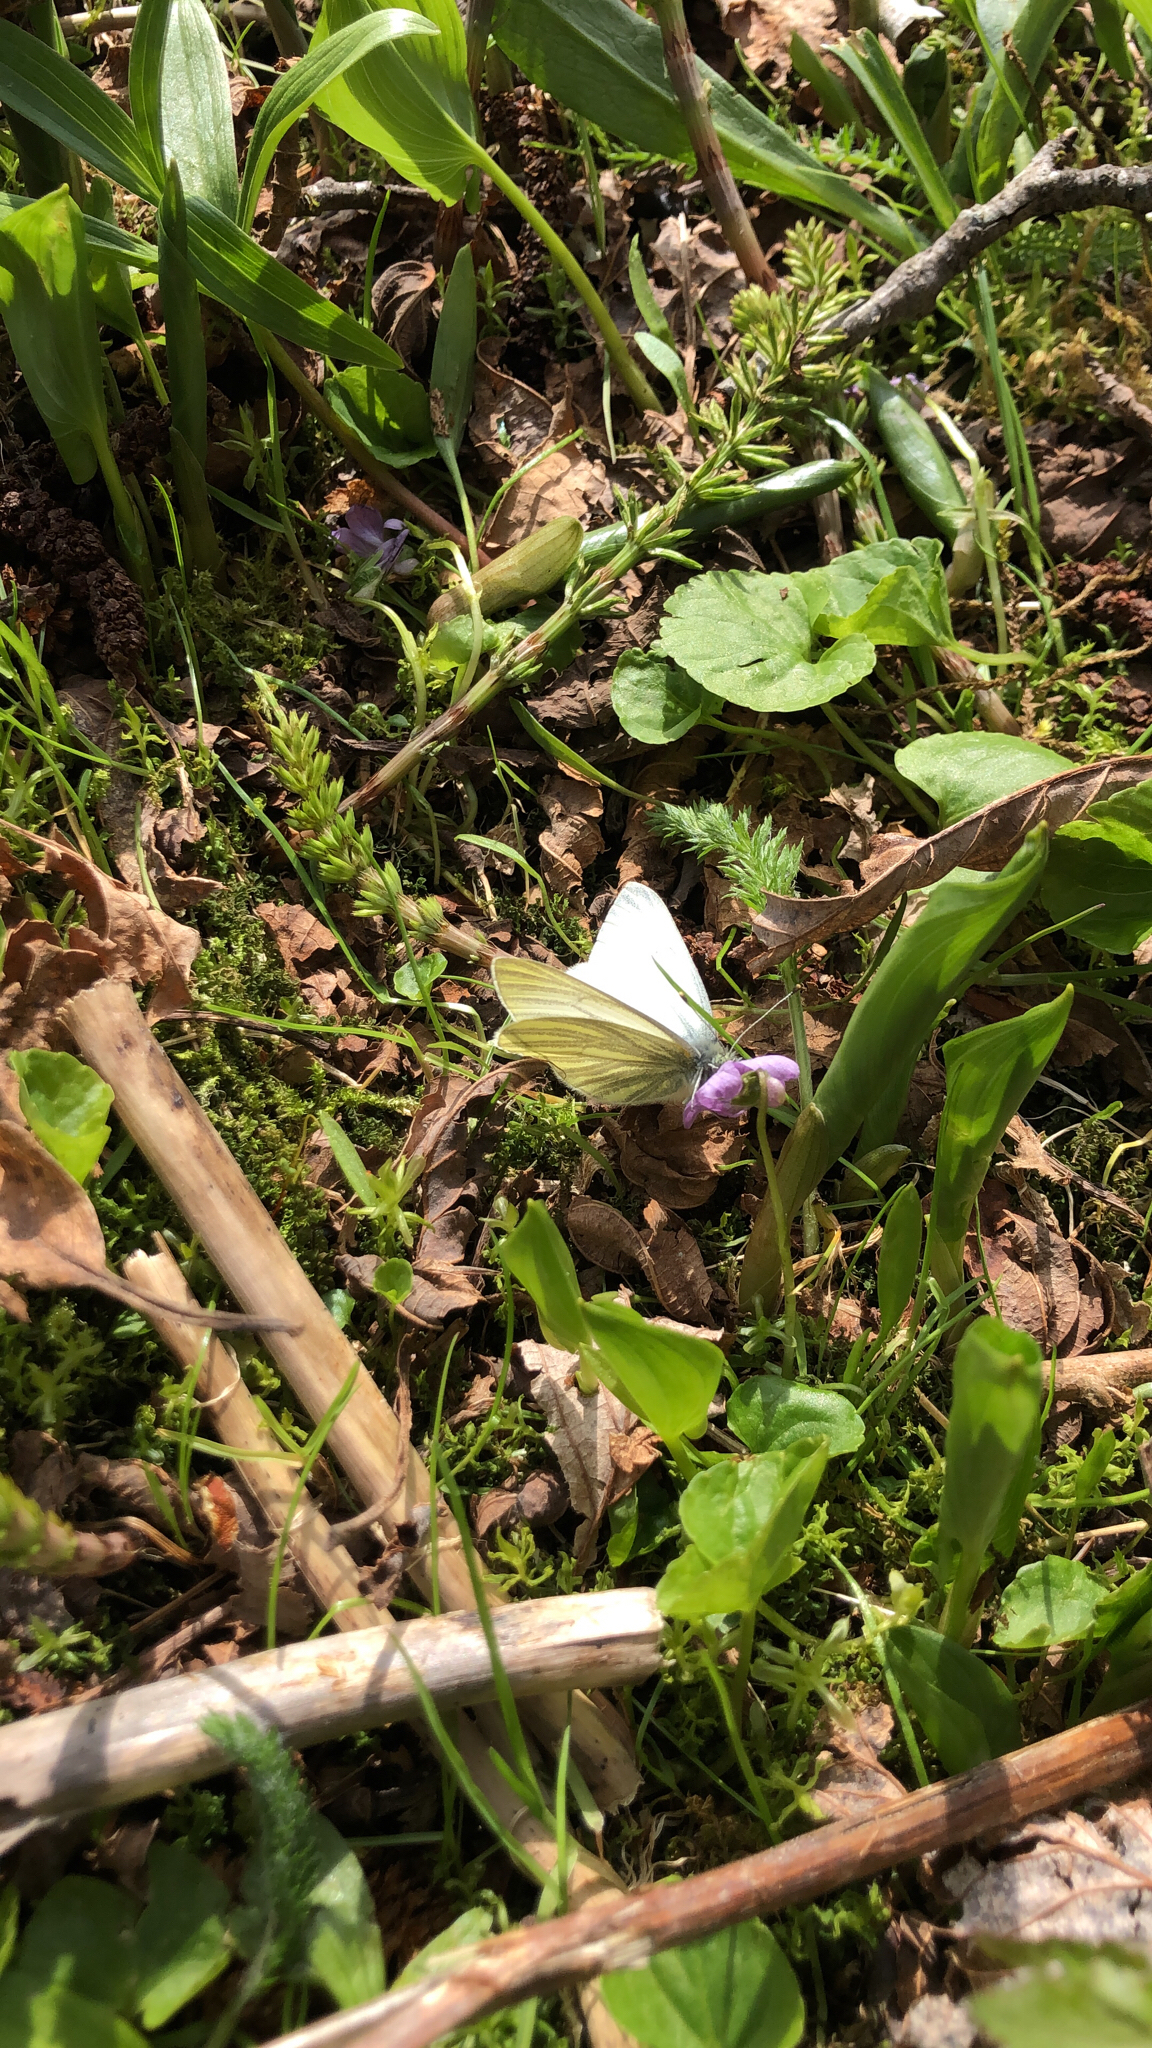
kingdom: Animalia
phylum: Arthropoda
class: Insecta
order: Lepidoptera
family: Pieridae
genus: Pieris
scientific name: Pieris marginalis
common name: Margined white
